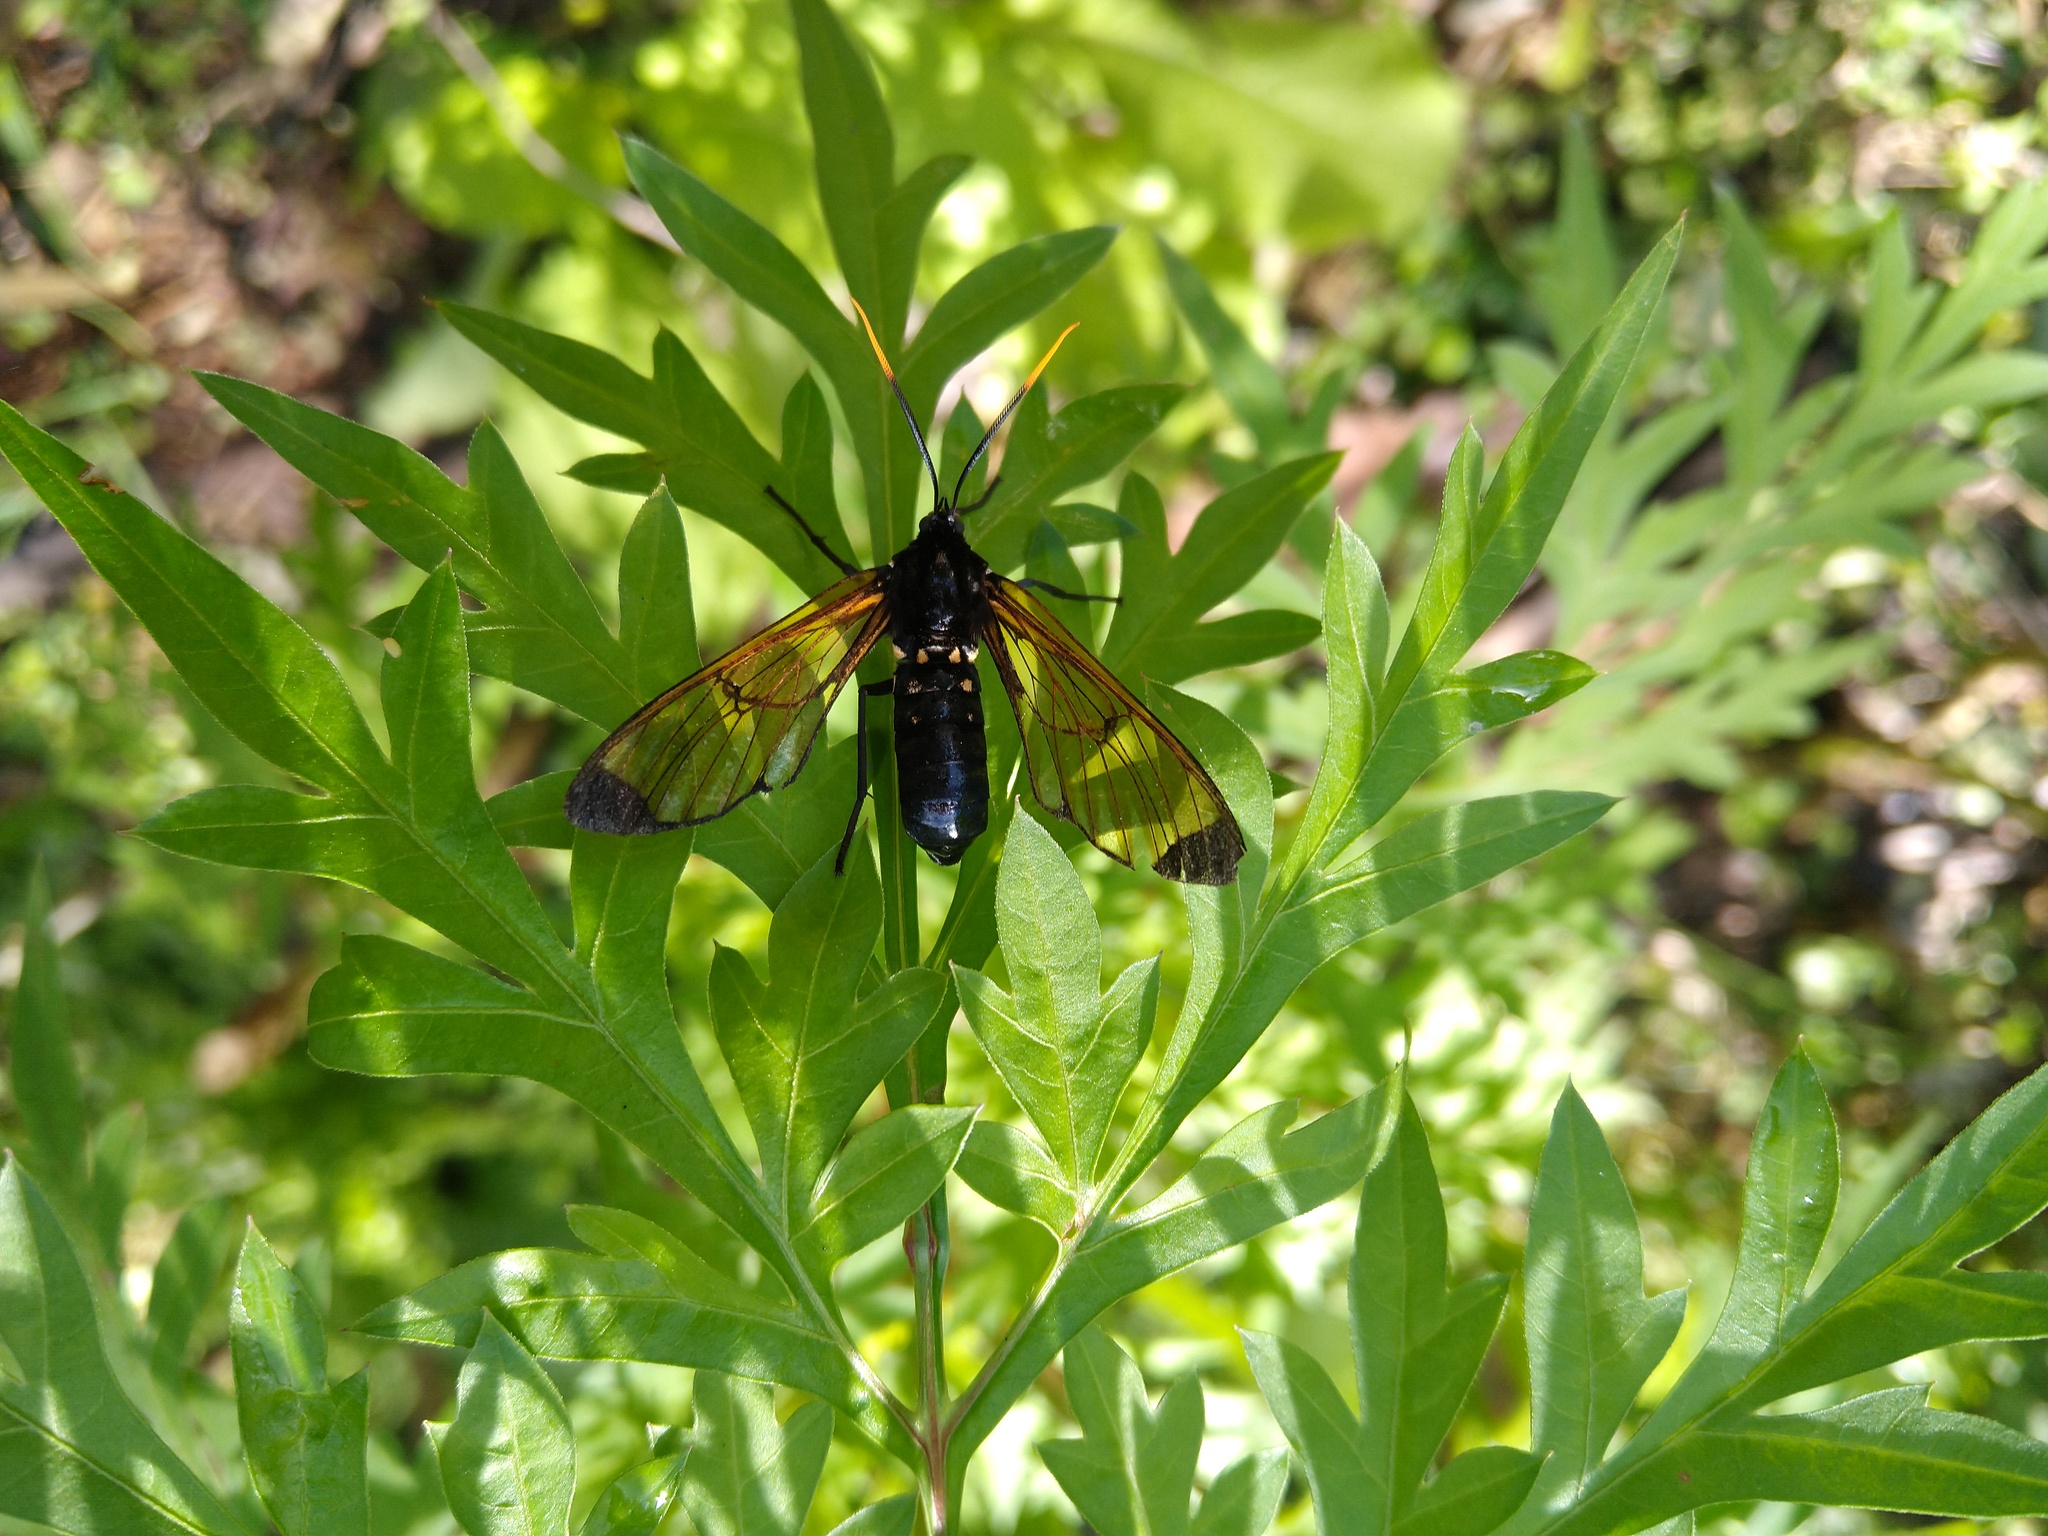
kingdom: Animalia
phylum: Arthropoda
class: Insecta
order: Lepidoptera
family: Erebidae
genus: Isanthrene
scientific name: Isanthrene incendiaria
